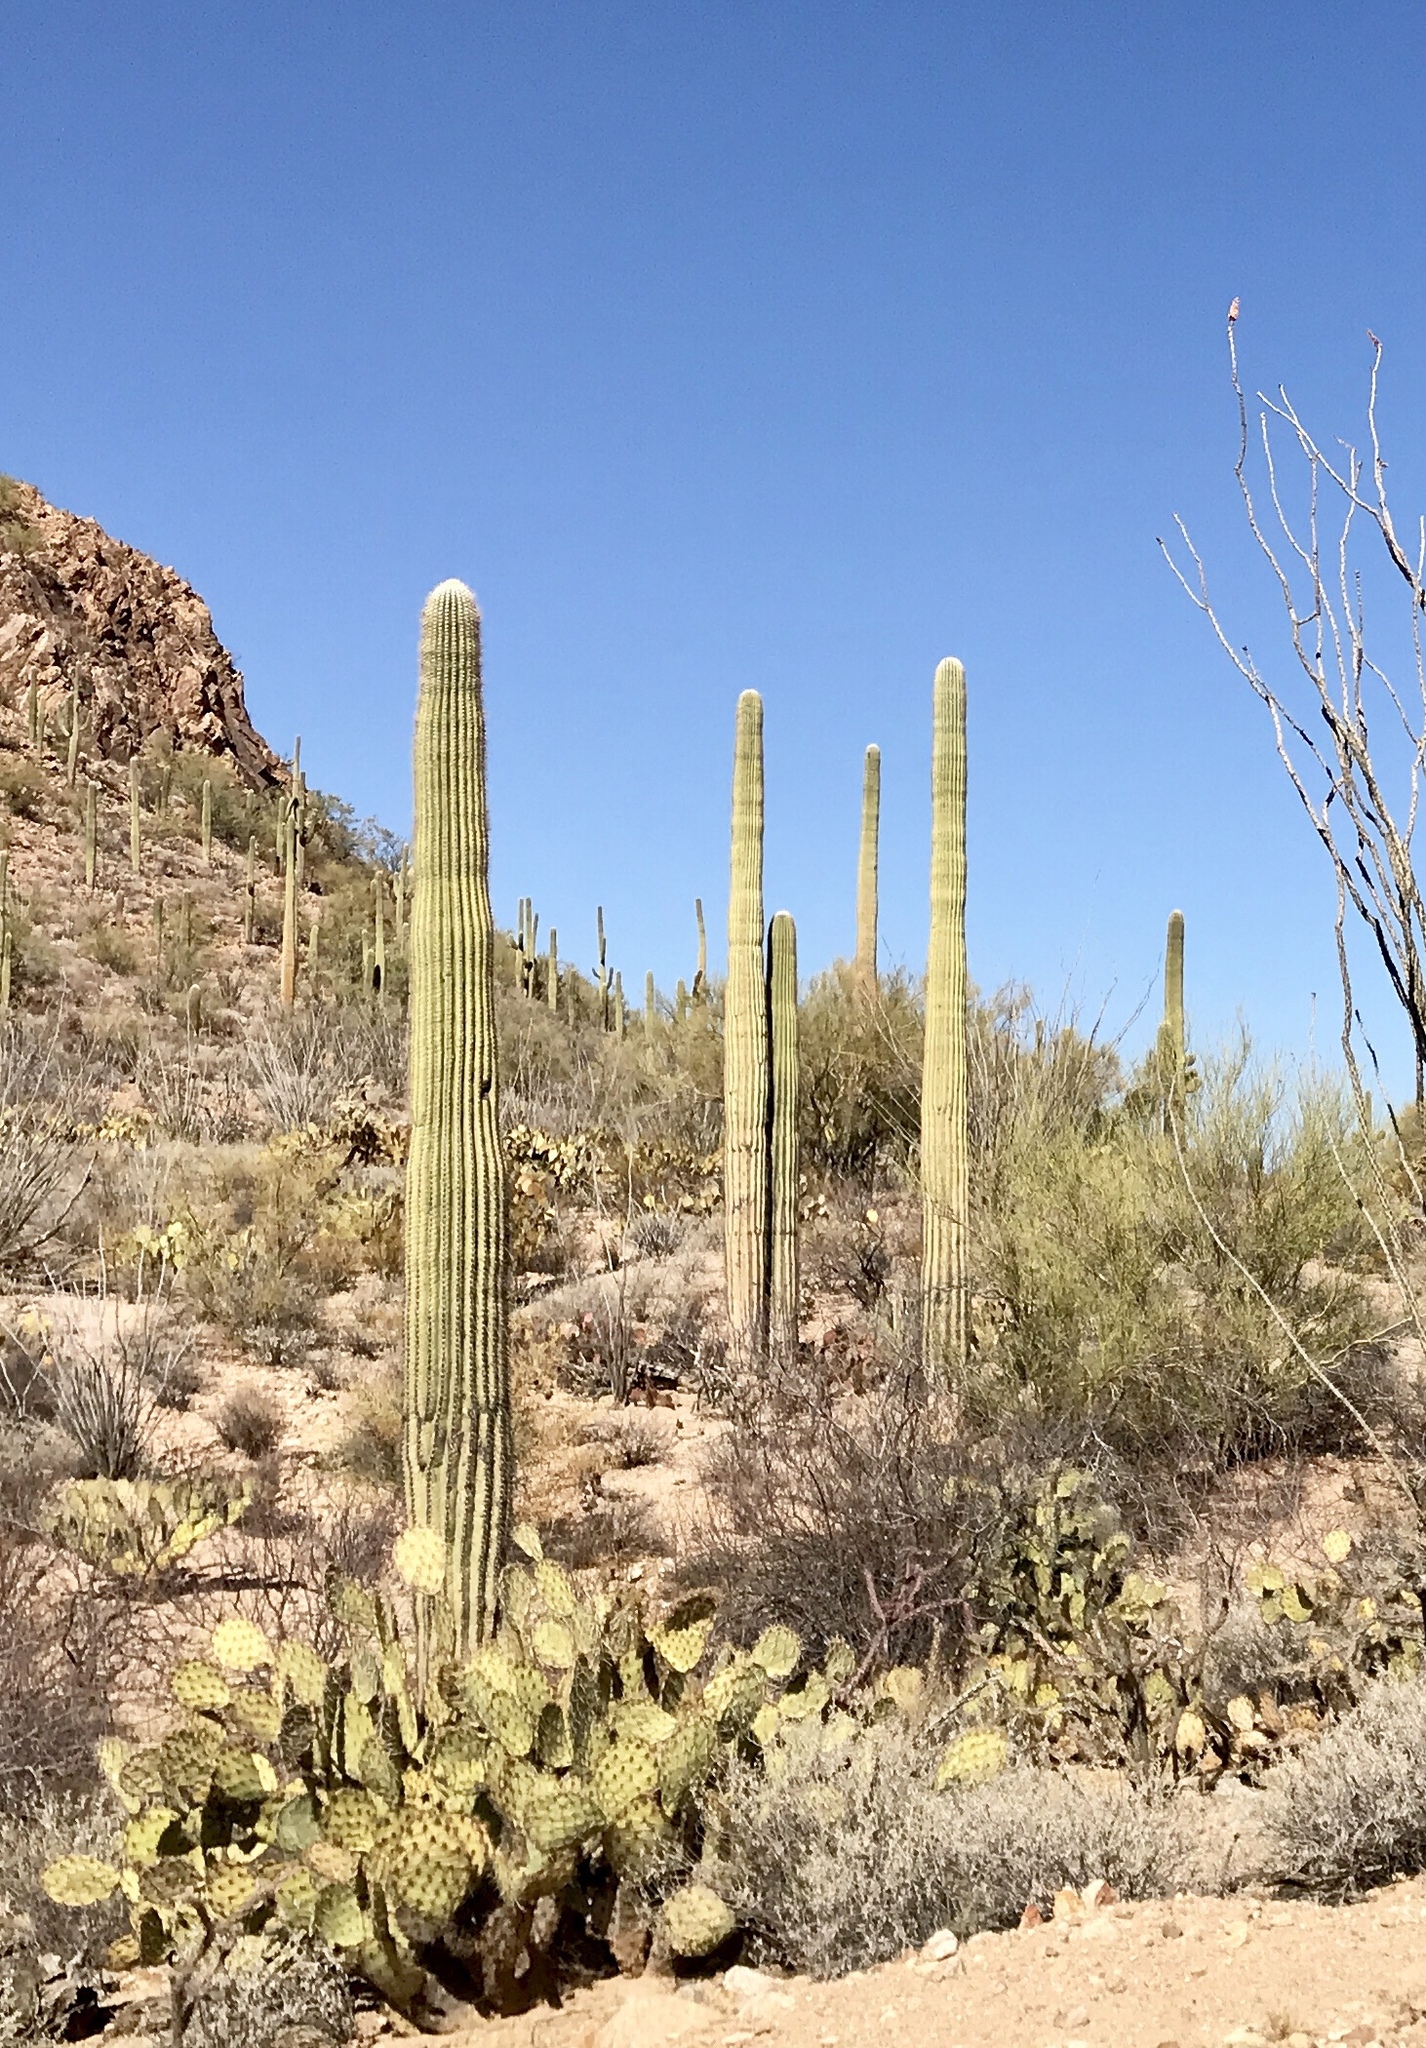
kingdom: Plantae
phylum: Tracheophyta
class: Magnoliopsida
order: Caryophyllales
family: Cactaceae
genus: Carnegiea
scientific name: Carnegiea gigantea
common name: Saguaro
